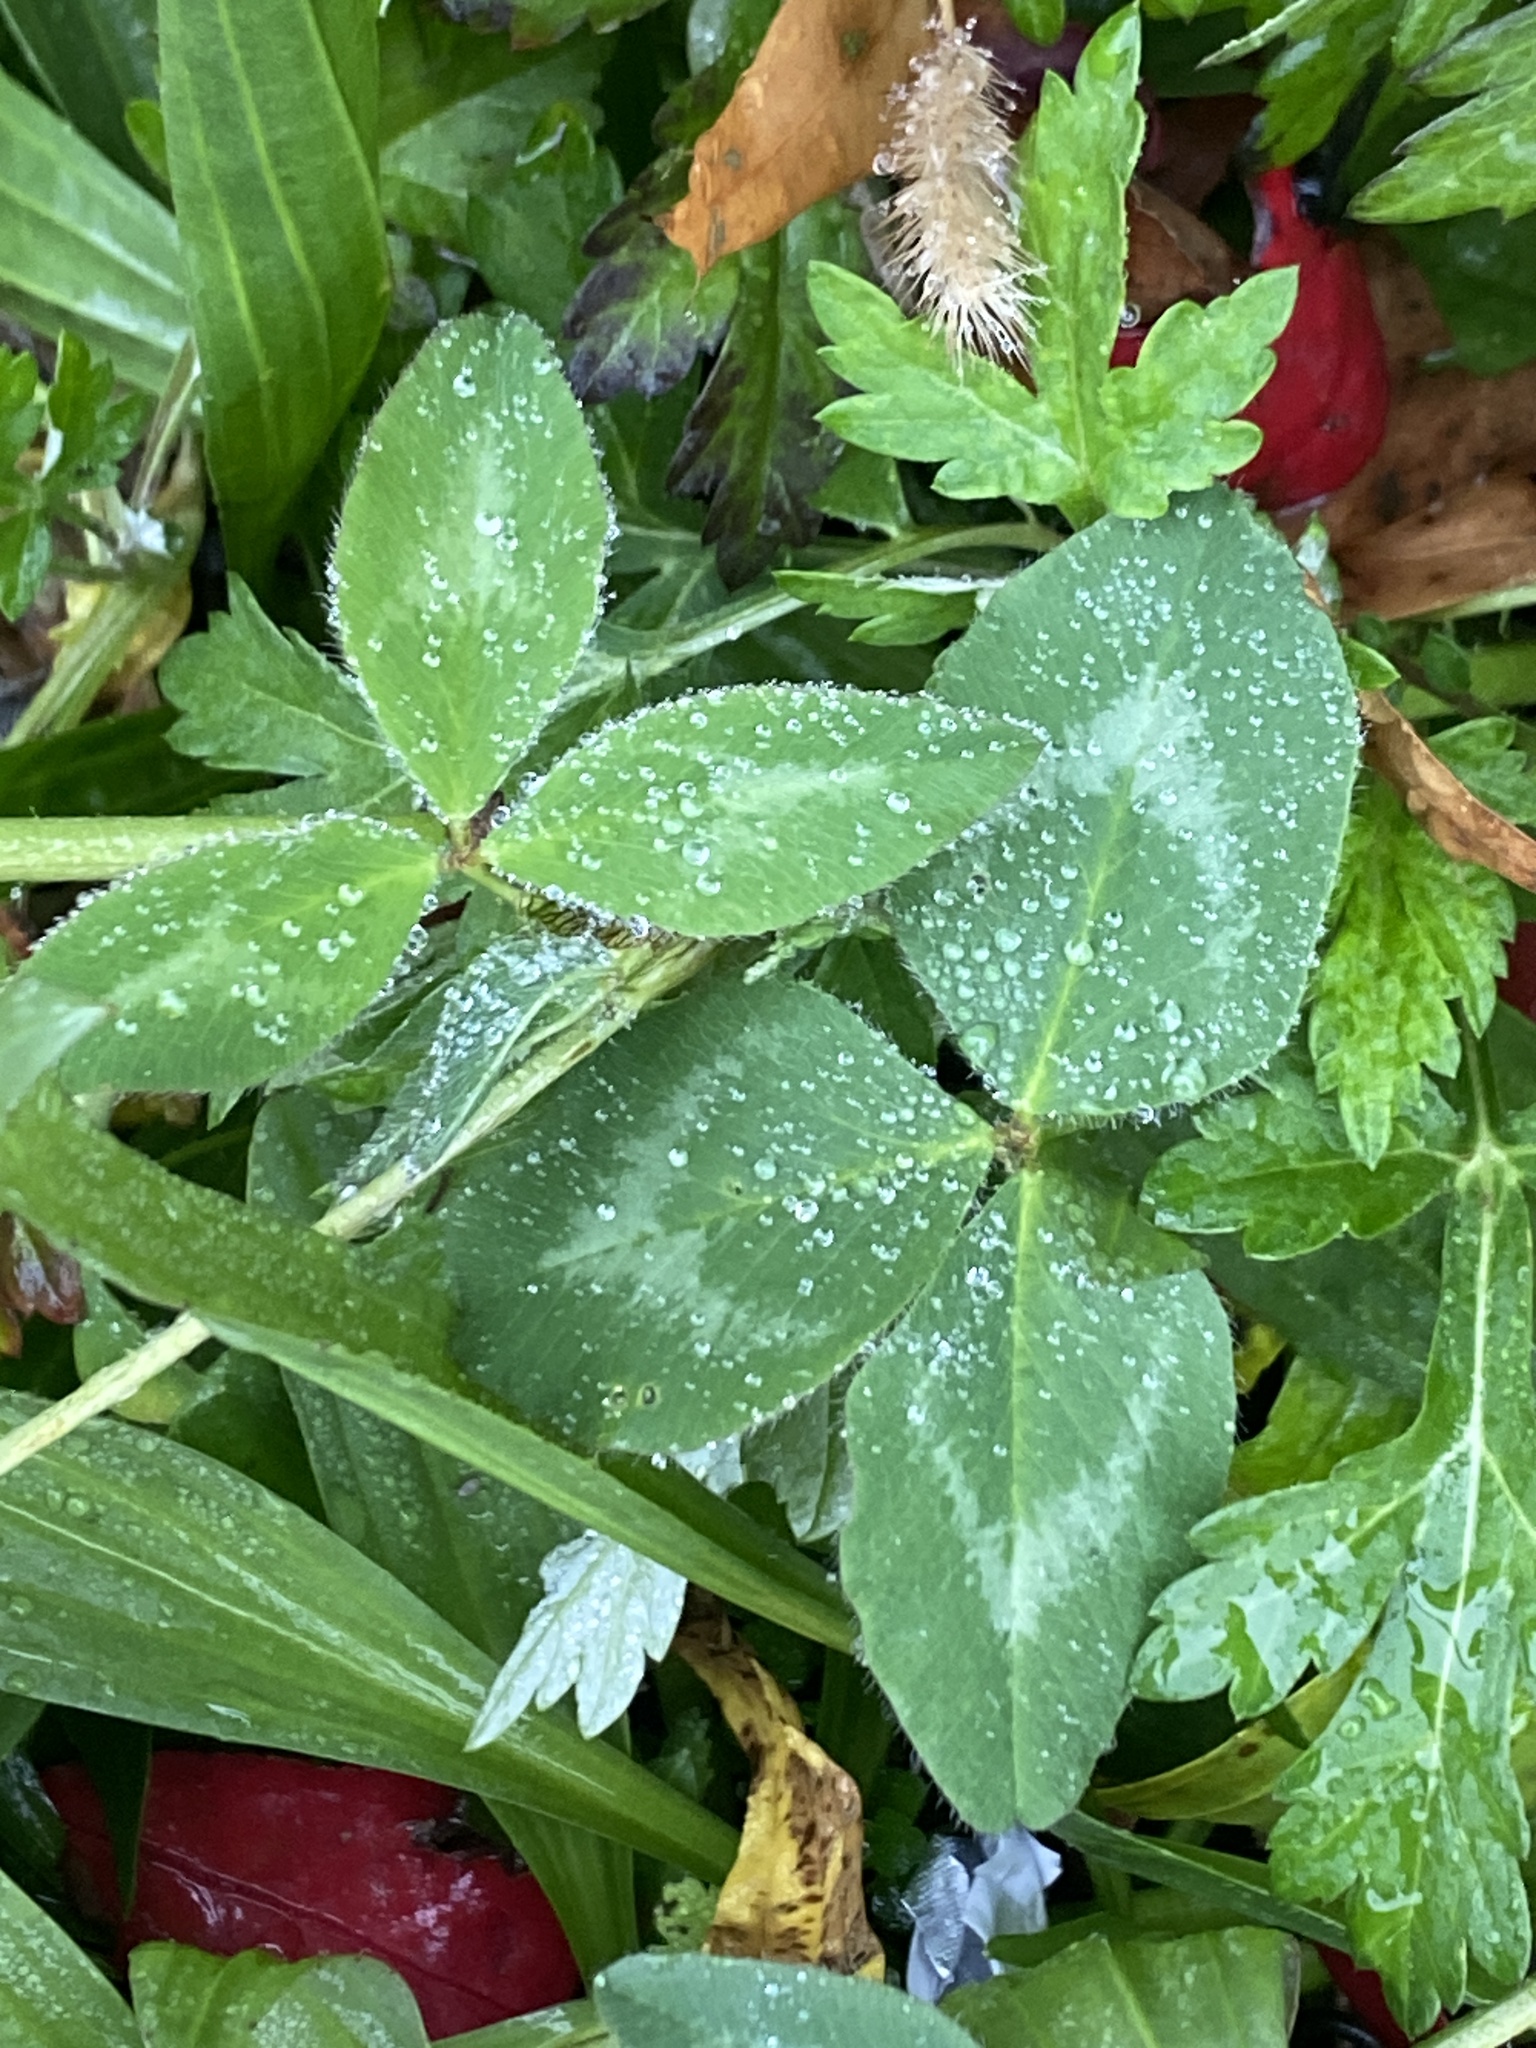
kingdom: Plantae
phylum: Tracheophyta
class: Magnoliopsida
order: Fabales
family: Fabaceae
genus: Trifolium
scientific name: Trifolium pratense
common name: Red clover
